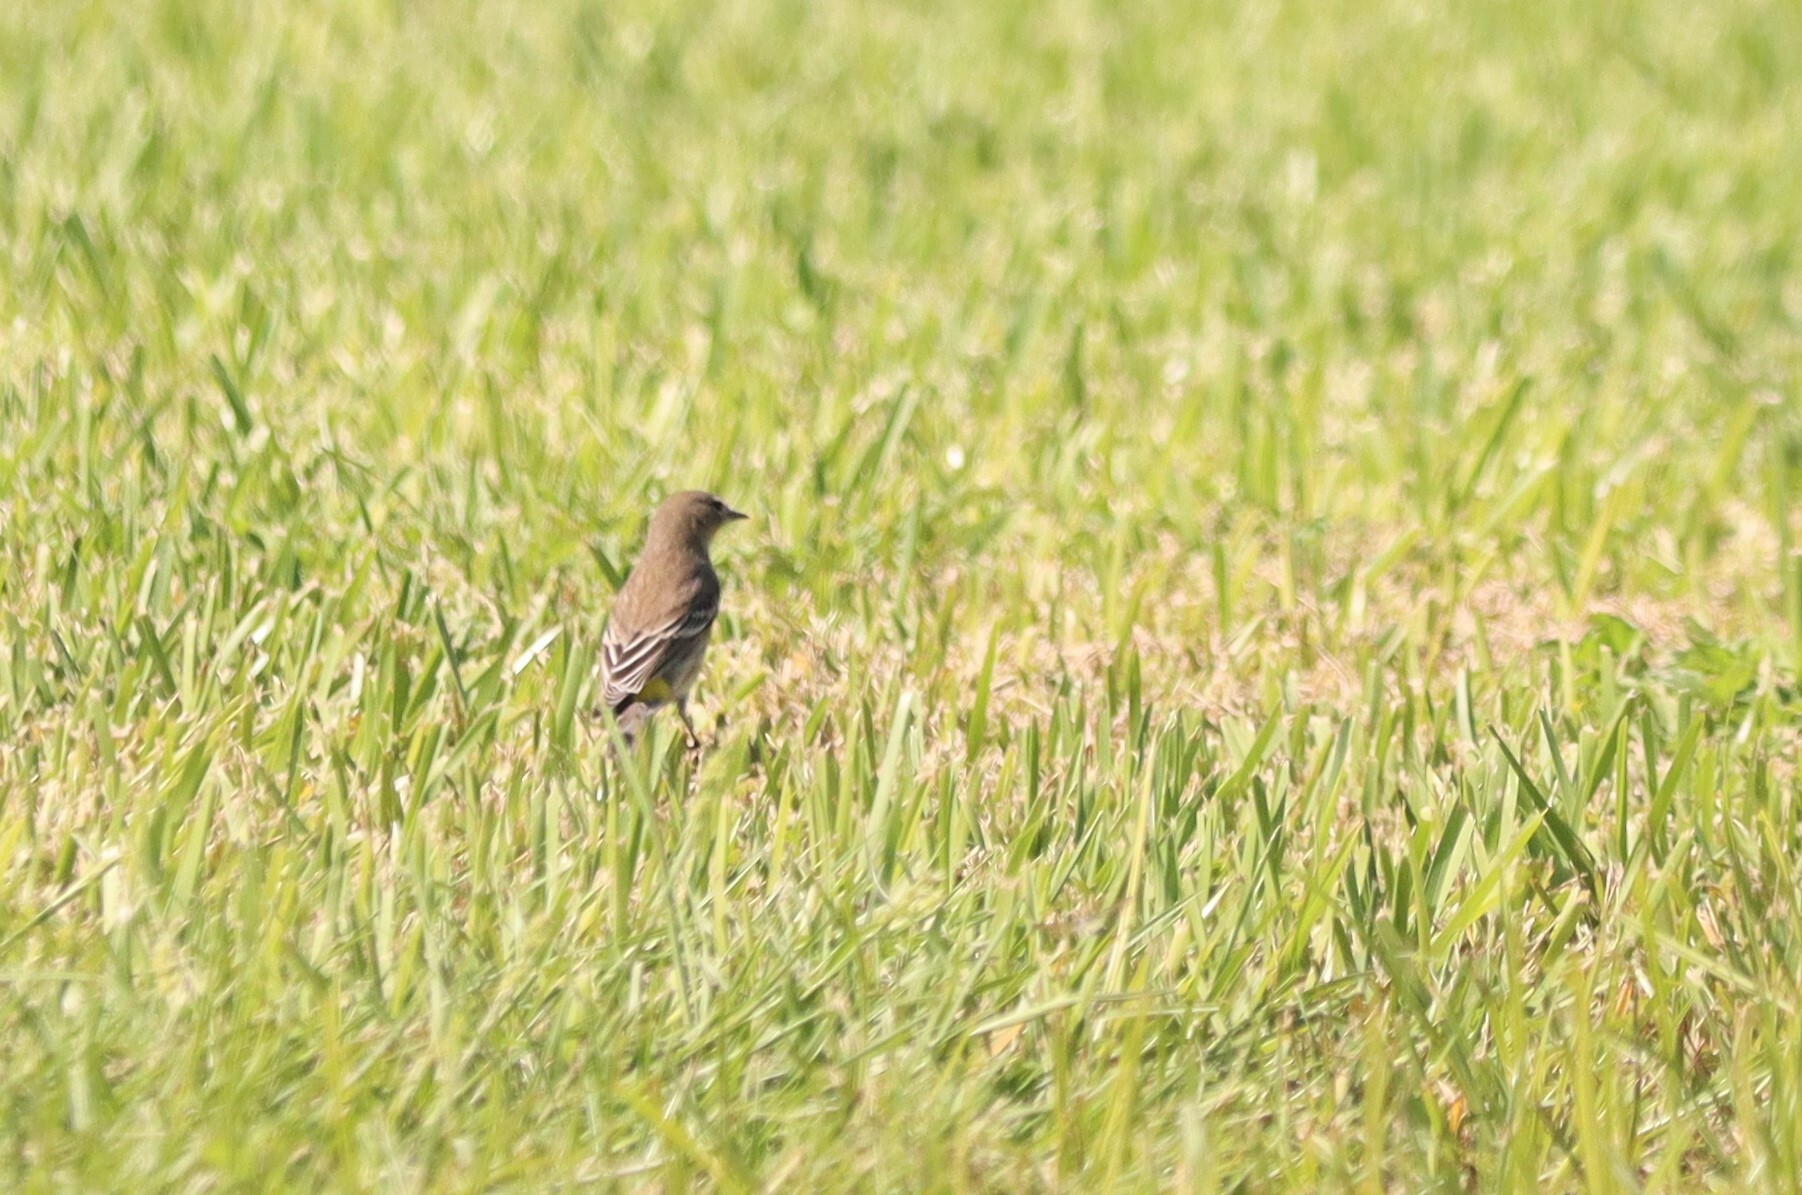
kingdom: Animalia
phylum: Chordata
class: Aves
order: Passeriformes
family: Parulidae
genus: Setophaga
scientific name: Setophaga coronata
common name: Myrtle warbler
